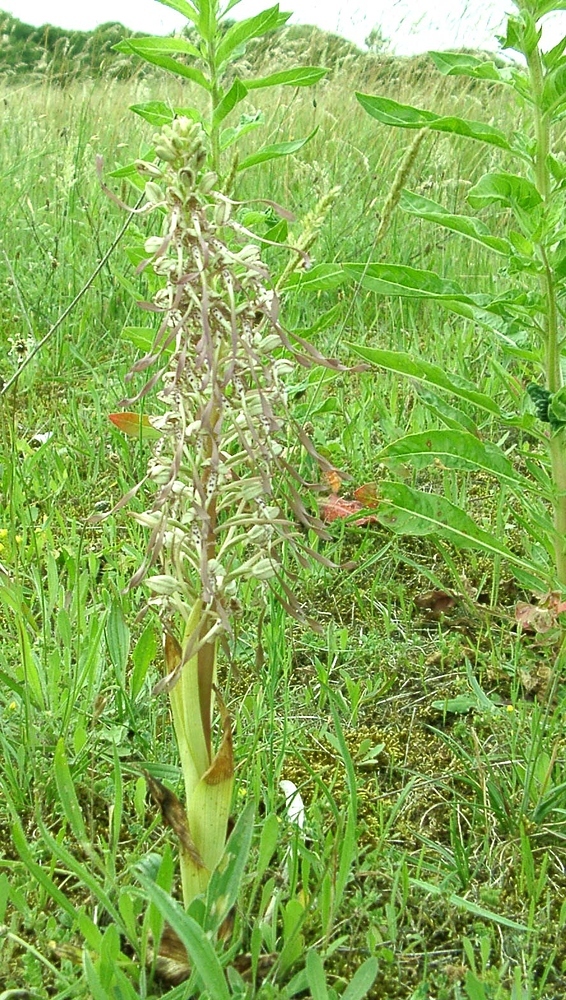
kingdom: Plantae
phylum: Tracheophyta
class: Liliopsida
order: Asparagales
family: Orchidaceae
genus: Himantoglossum
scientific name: Himantoglossum hircinum
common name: Lizard orchid
